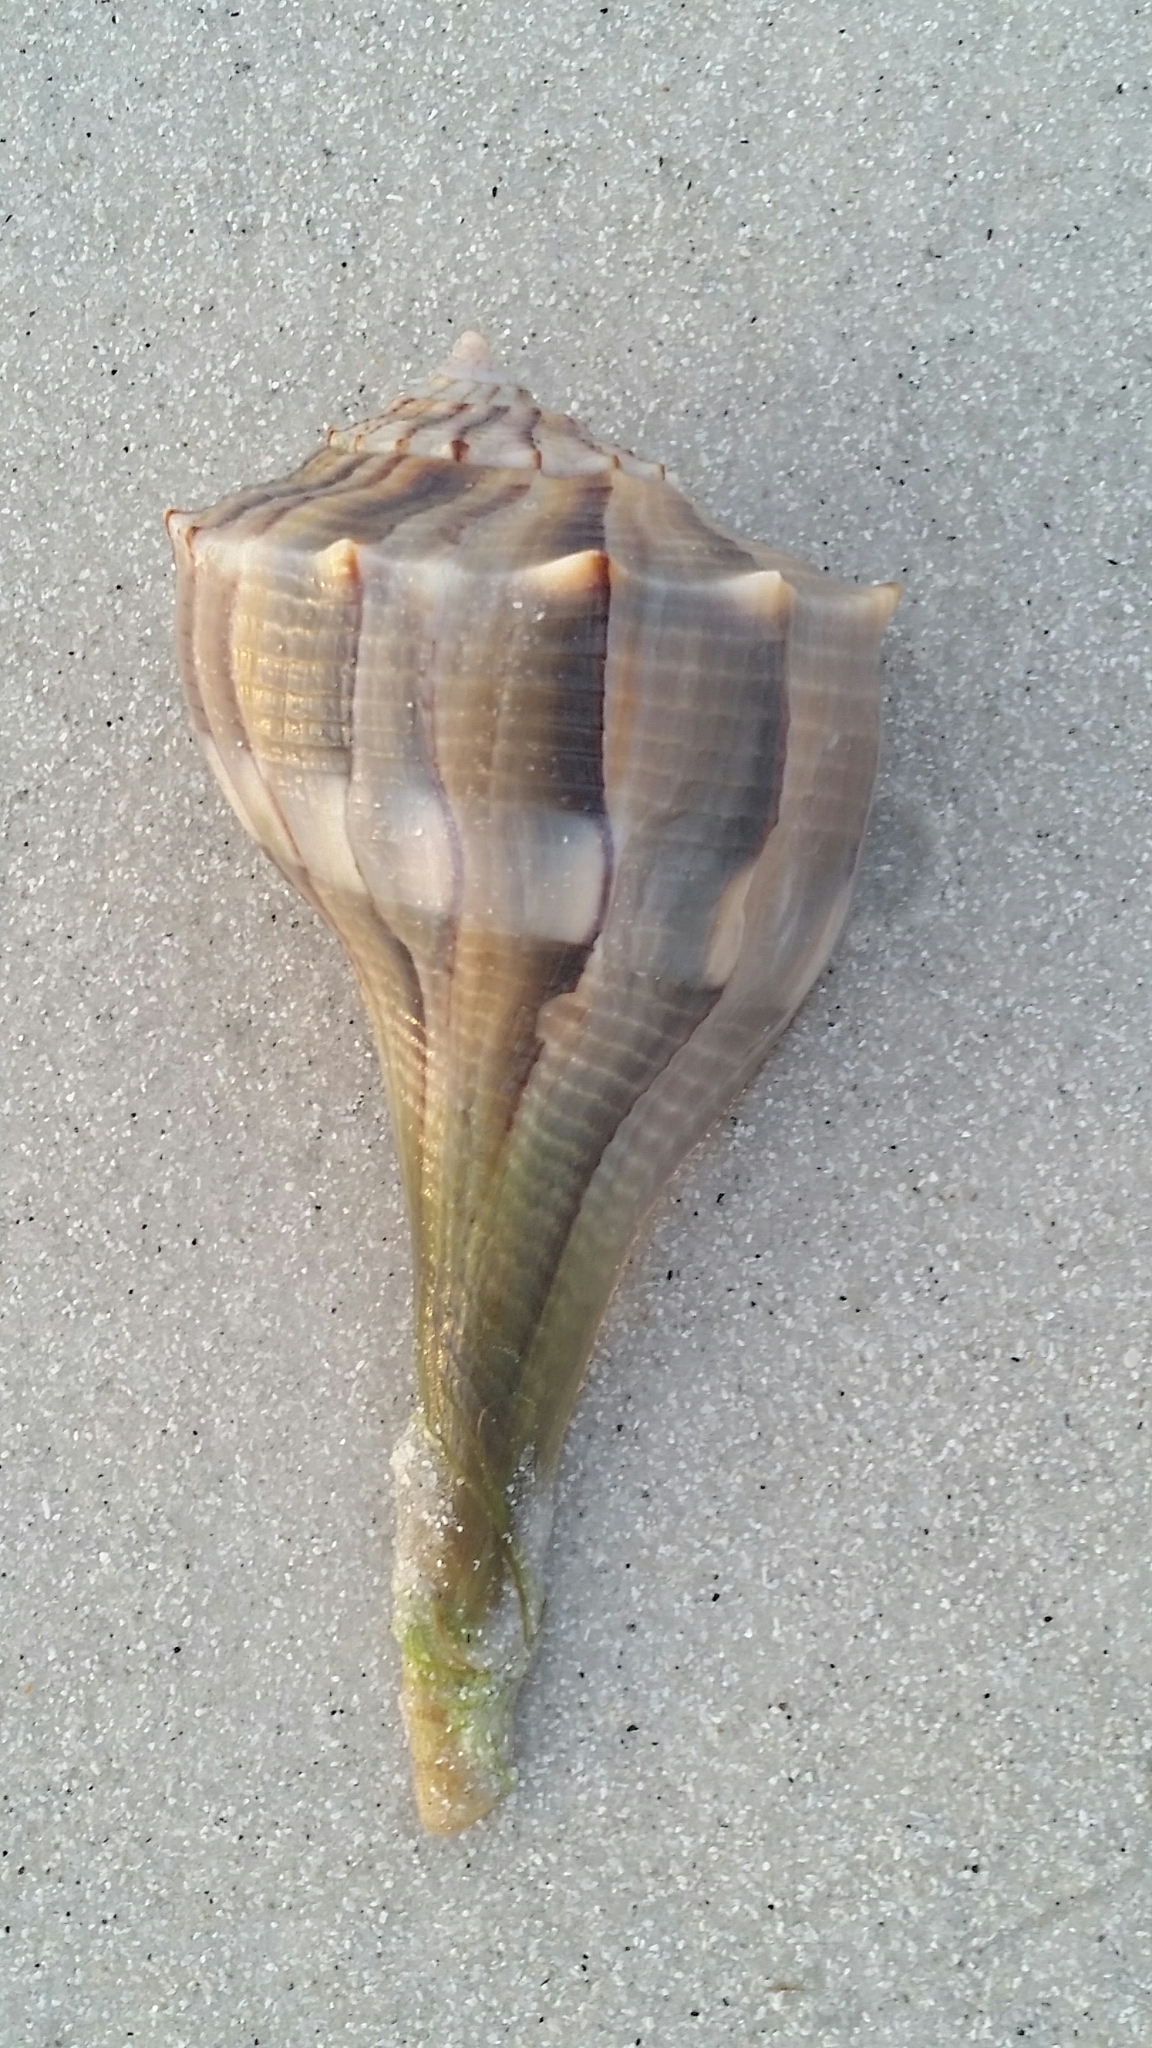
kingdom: Animalia
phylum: Mollusca
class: Gastropoda
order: Neogastropoda
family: Busyconidae
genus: Sinistrofulgur
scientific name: Sinistrofulgur sinistrum
